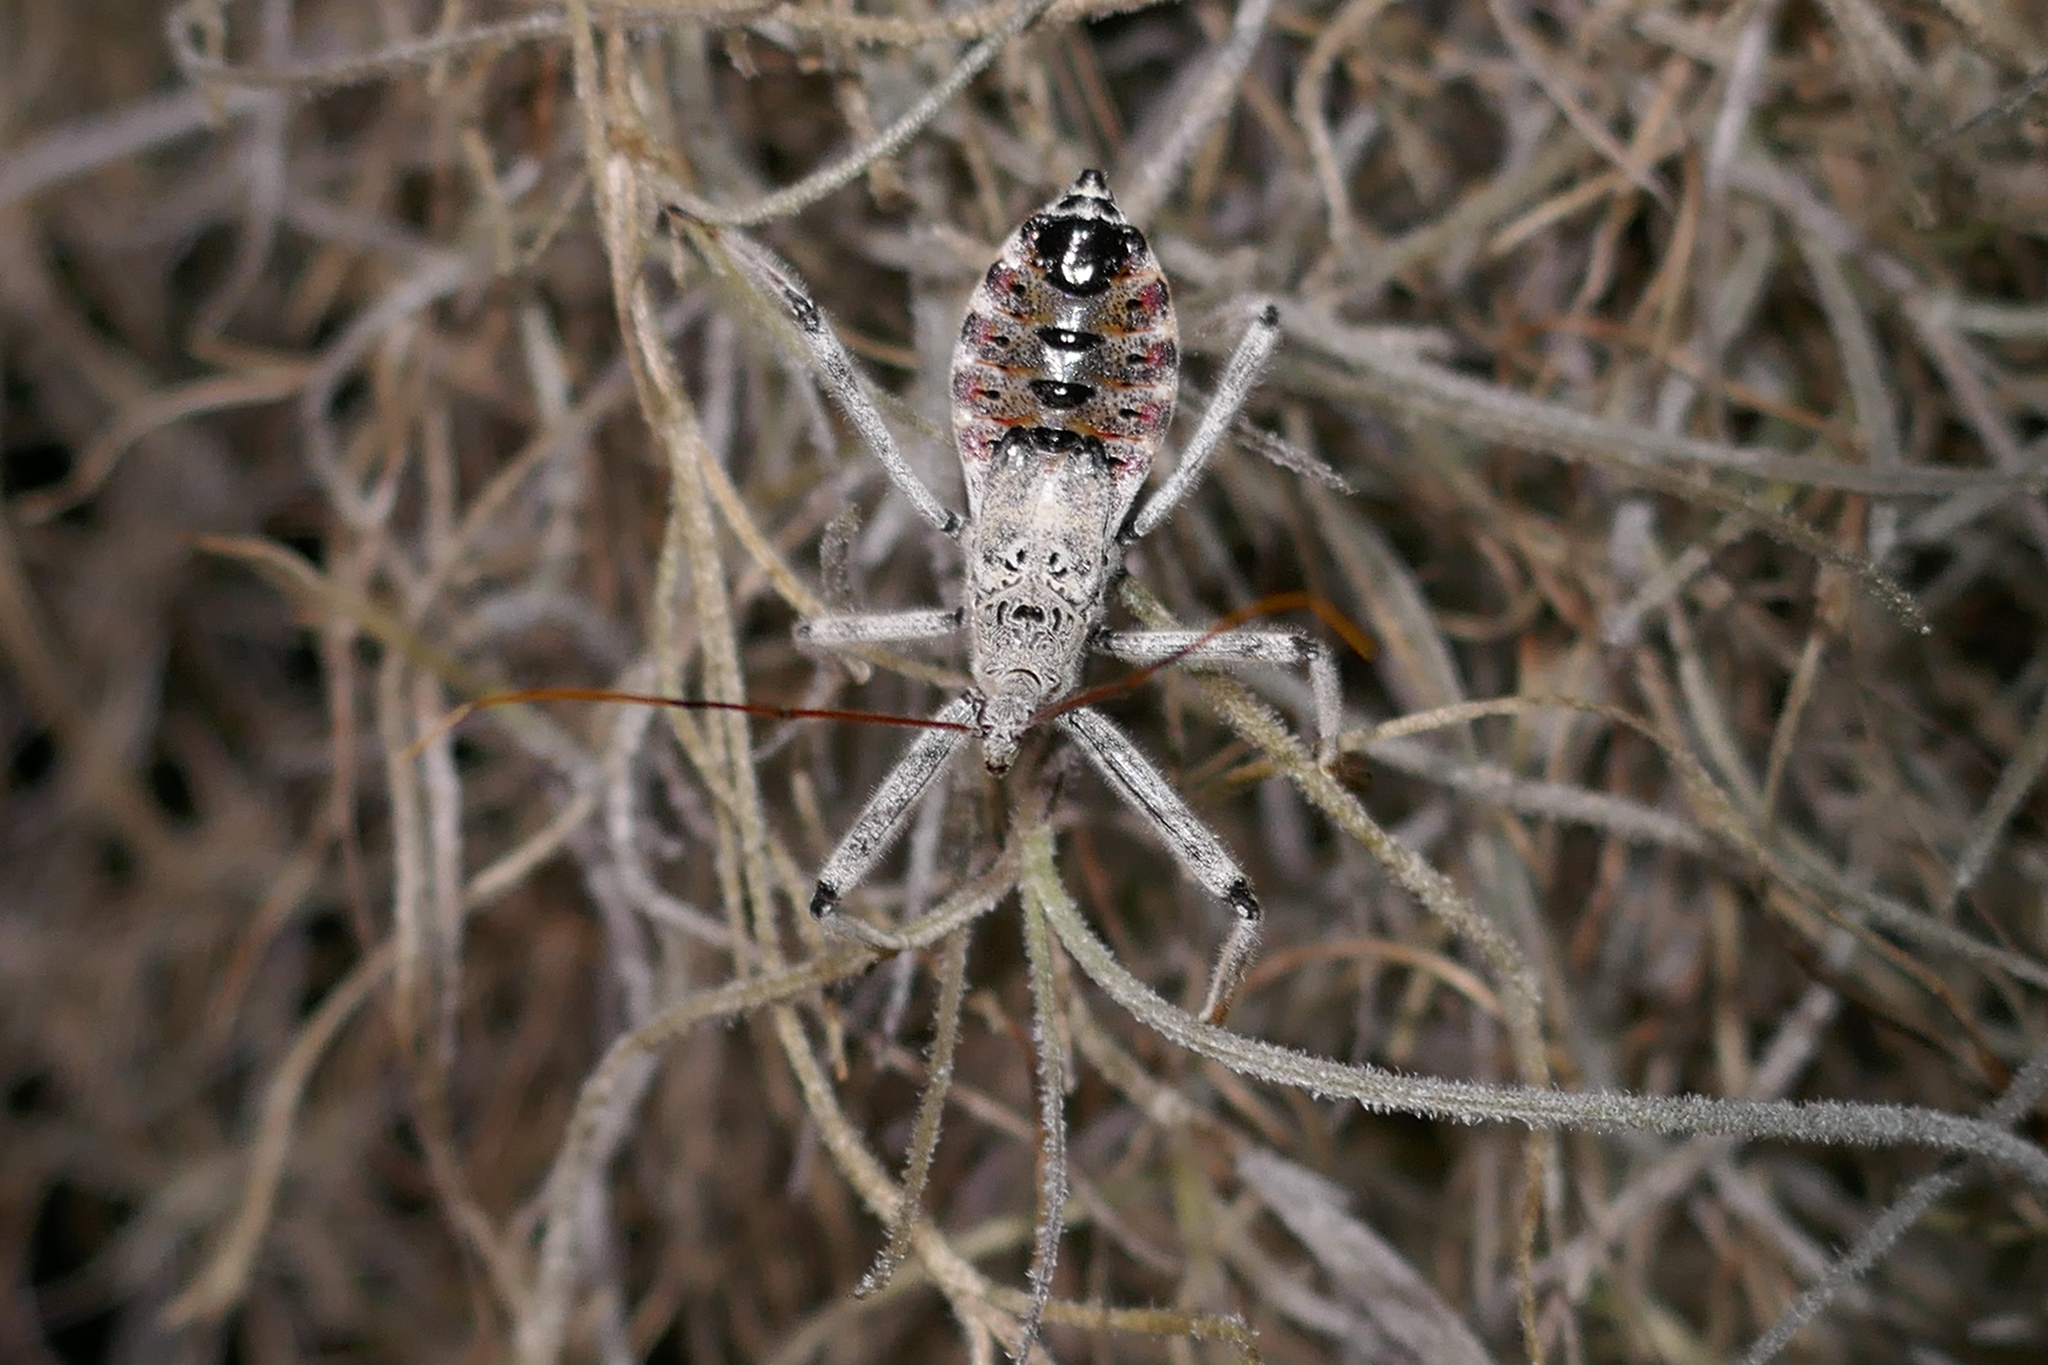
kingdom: Animalia
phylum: Arthropoda
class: Insecta
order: Hemiptera
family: Reduviidae
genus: Arilus
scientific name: Arilus cristatus
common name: North american wheel bug
